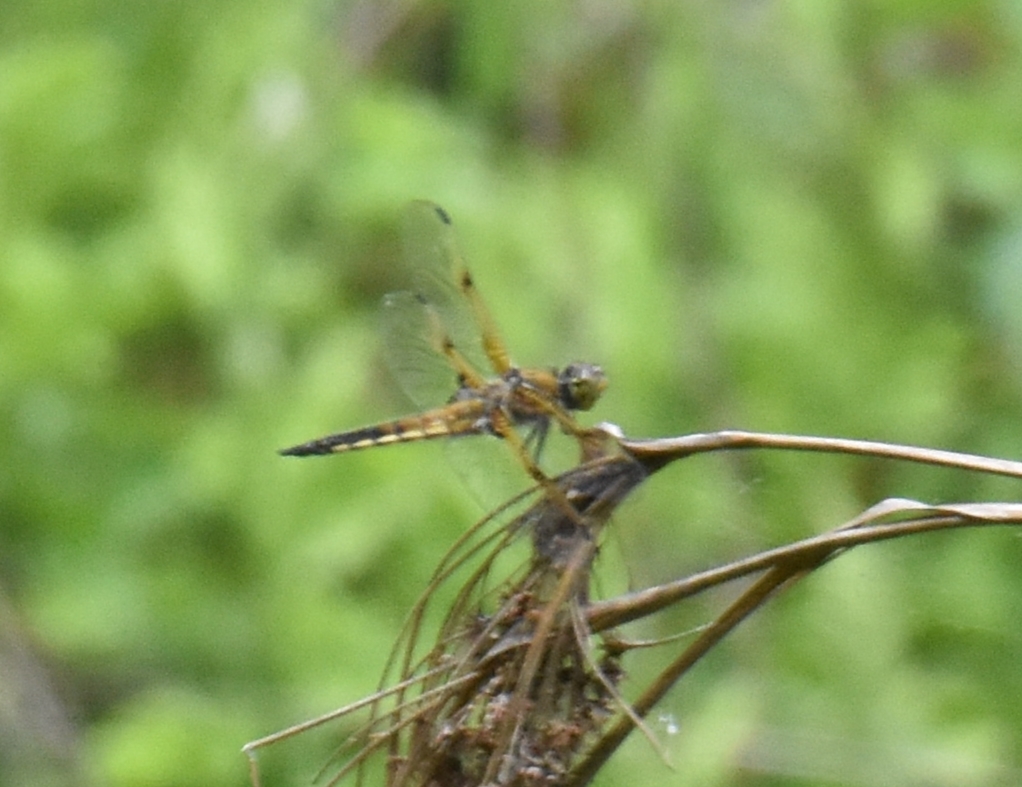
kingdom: Animalia
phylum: Arthropoda
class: Insecta
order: Odonata
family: Libellulidae
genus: Libellula
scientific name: Libellula quadrimaculata
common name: Four-spotted chaser
